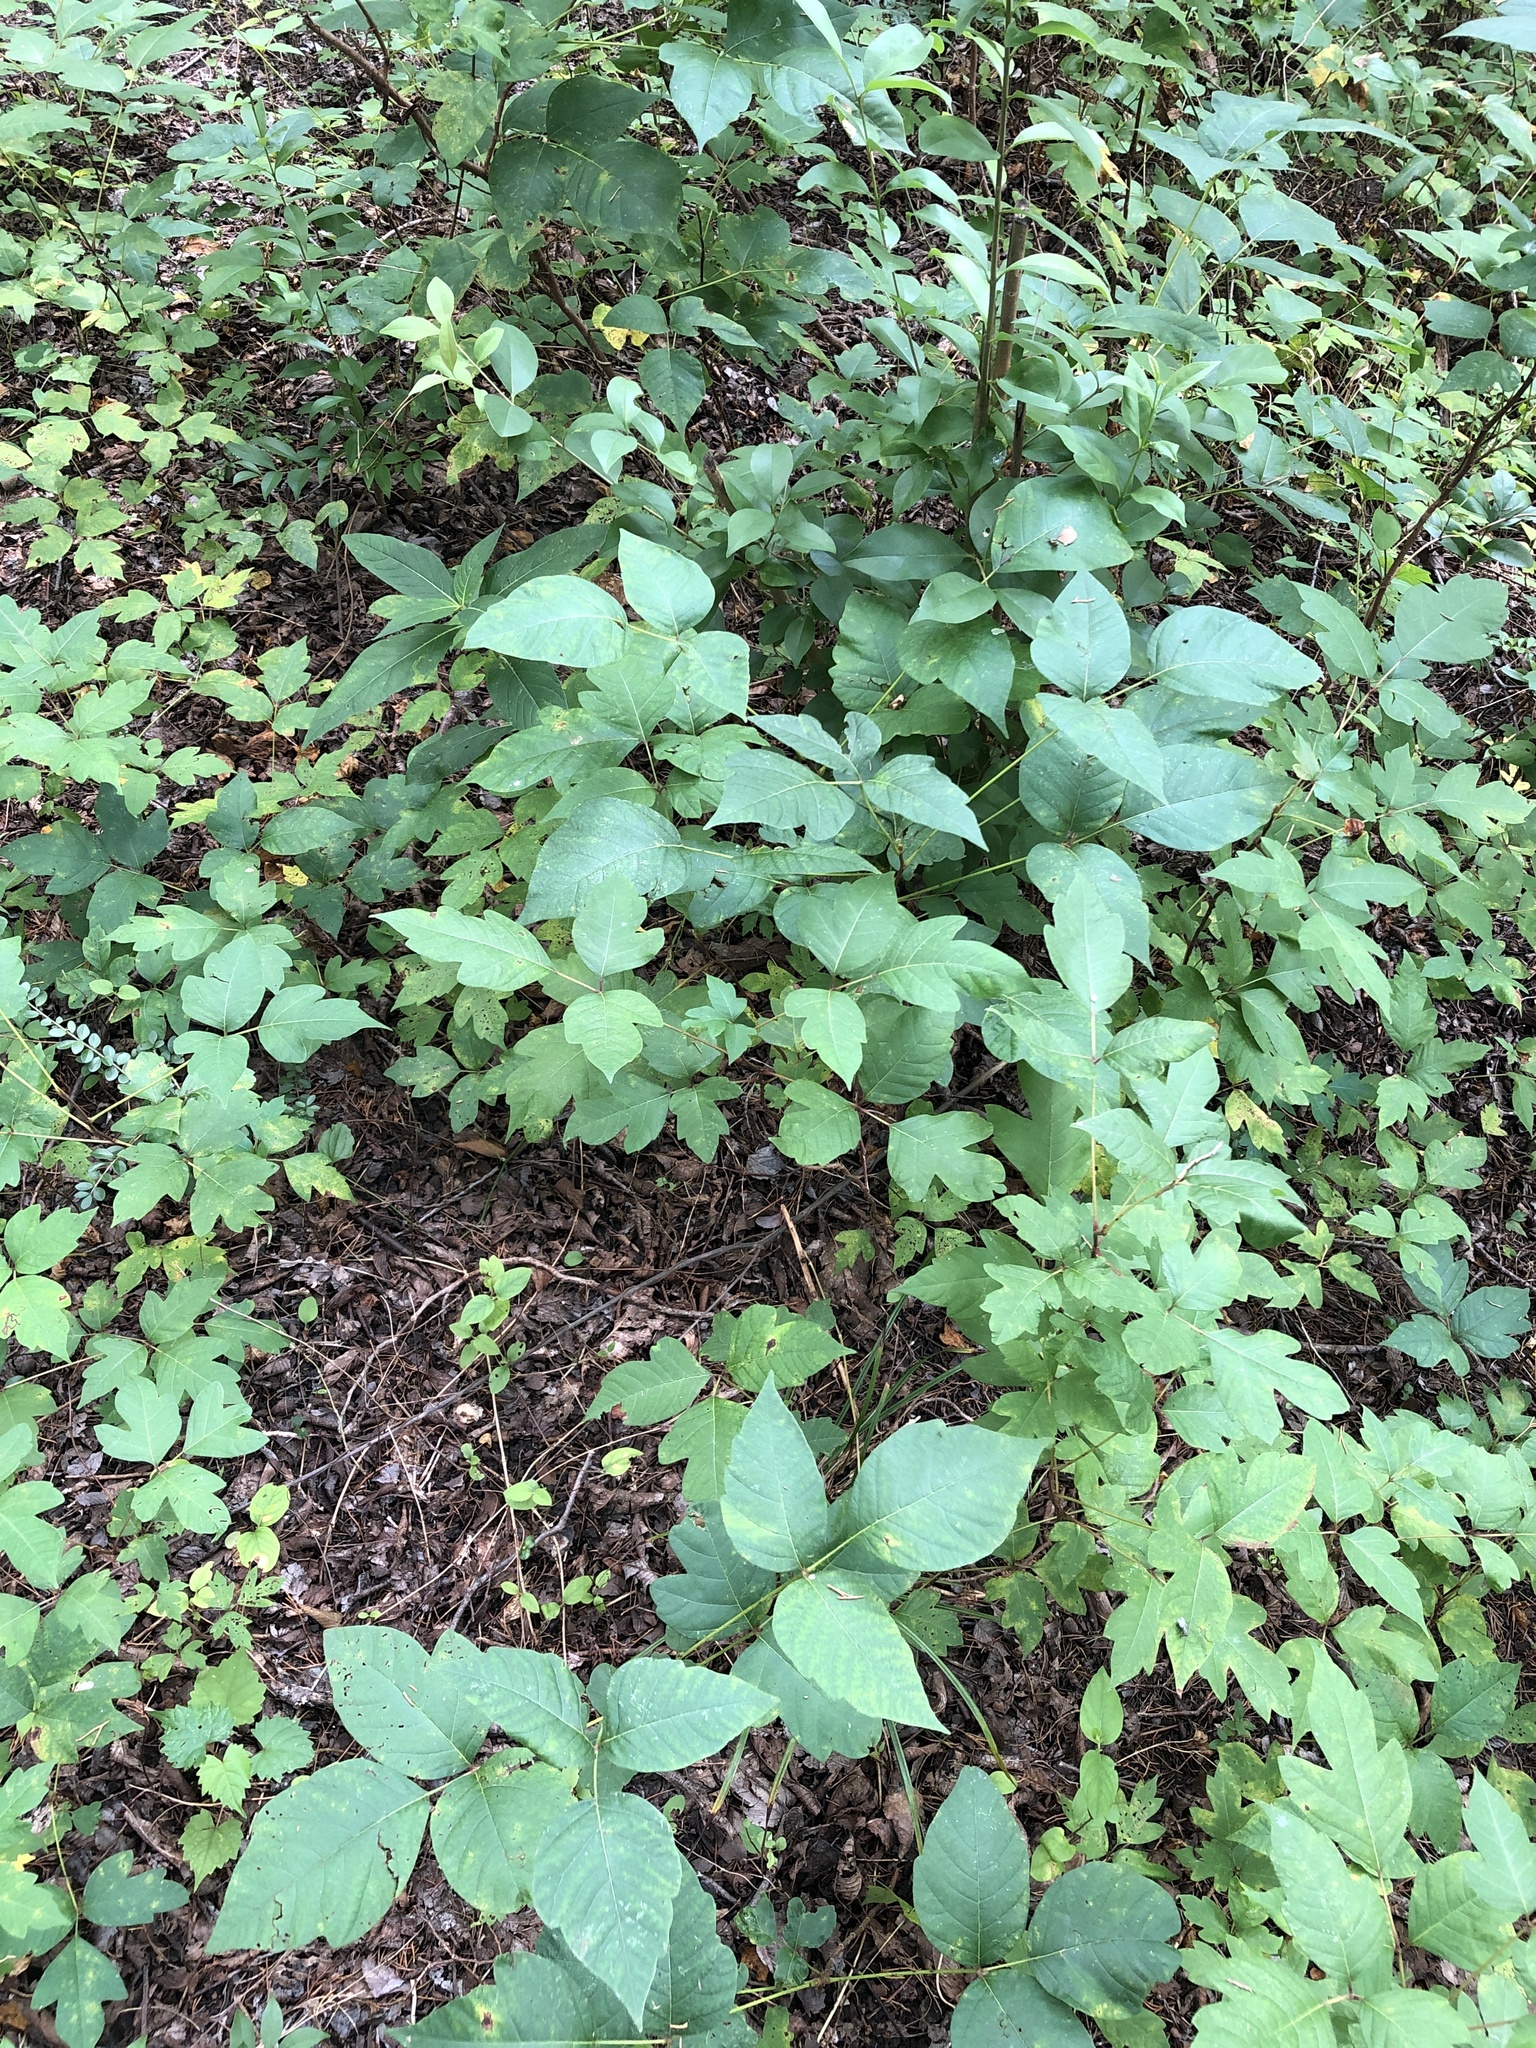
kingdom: Plantae
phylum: Tracheophyta
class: Magnoliopsida
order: Sapindales
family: Anacardiaceae
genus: Toxicodendron
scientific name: Toxicodendron radicans
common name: Poison ivy
